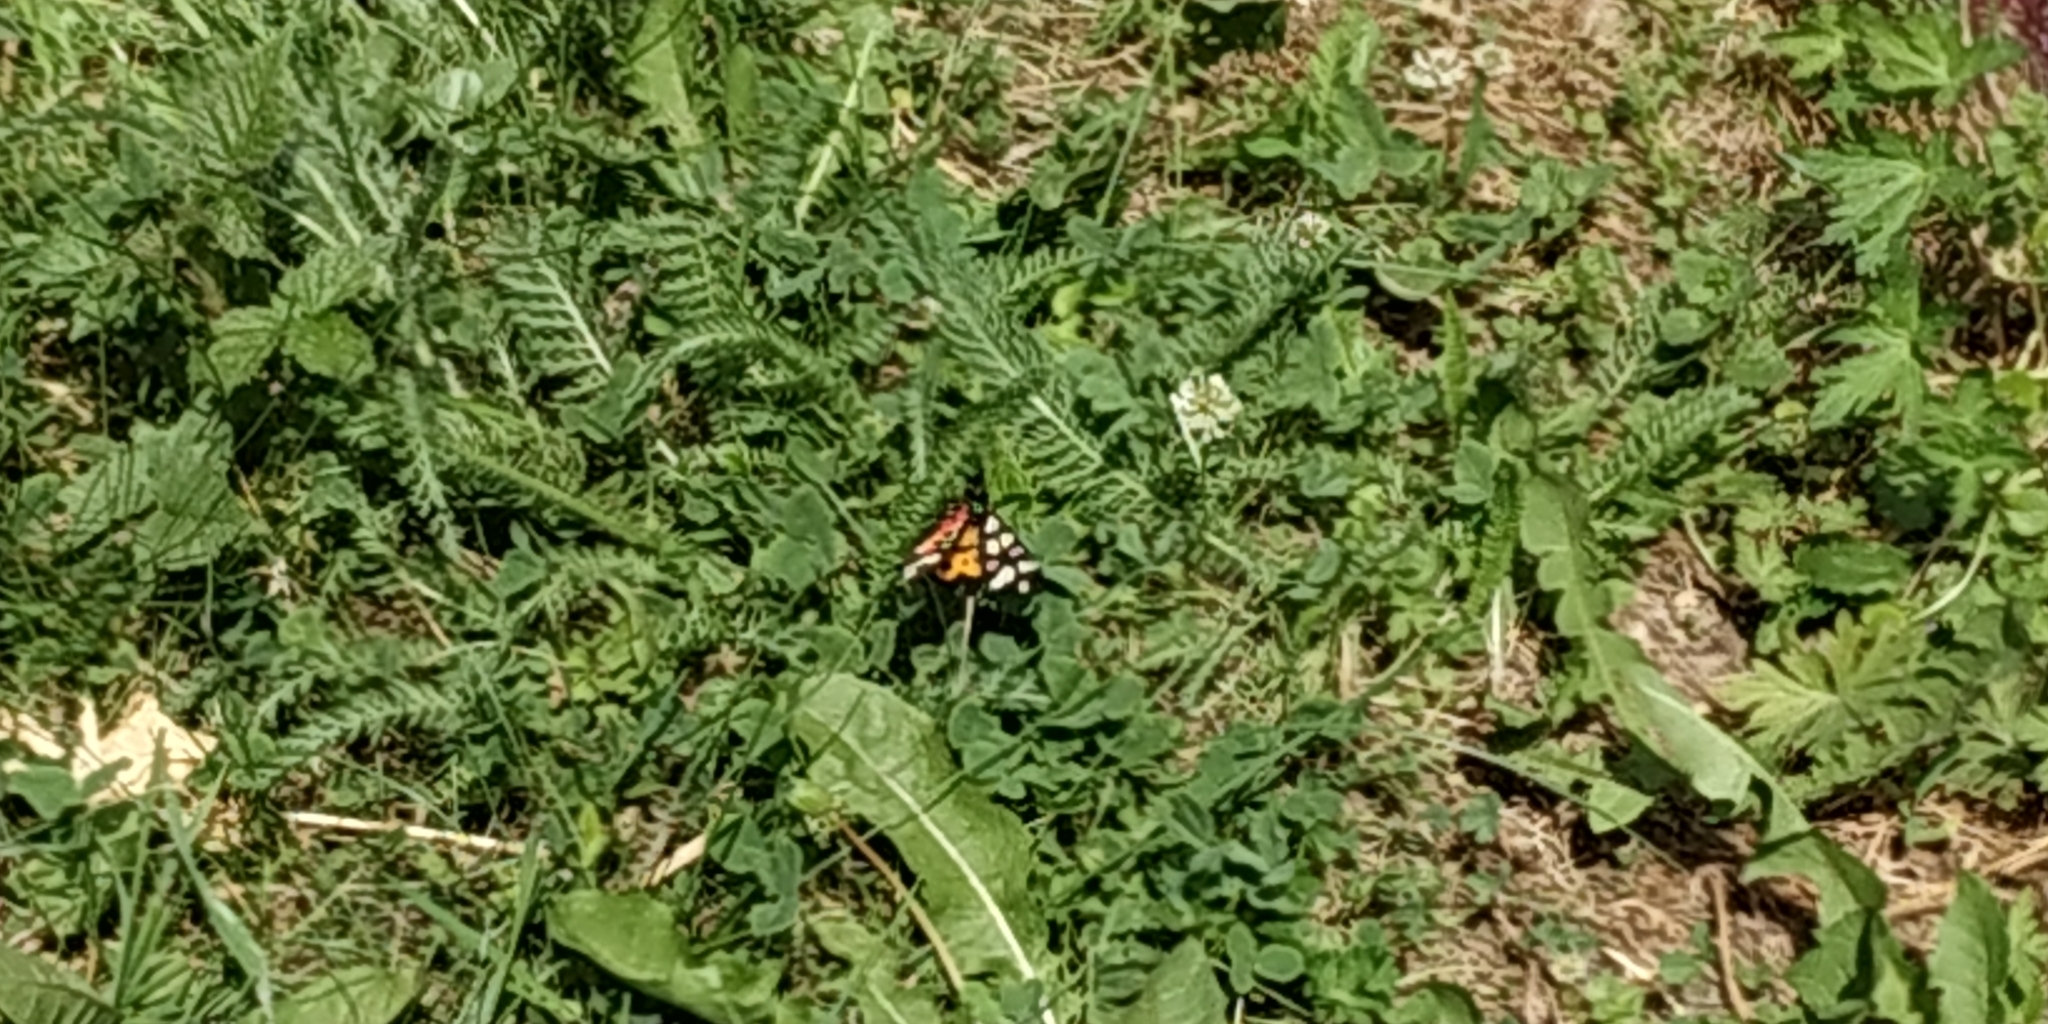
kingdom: Animalia
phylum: Arthropoda
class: Insecta
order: Lepidoptera
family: Erebidae
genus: Epicallia
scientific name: Epicallia villica
